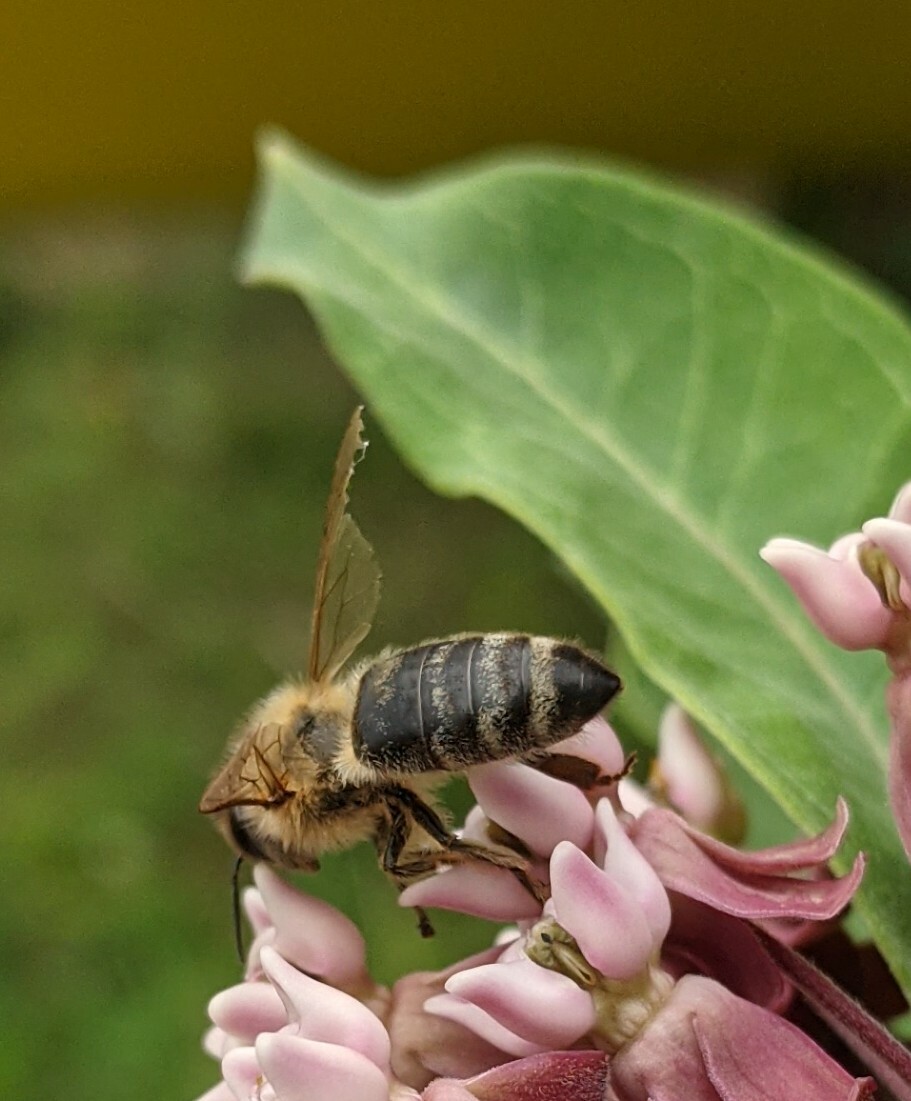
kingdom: Animalia
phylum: Arthropoda
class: Insecta
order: Hymenoptera
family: Apidae
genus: Apis
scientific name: Apis mellifera
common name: Honey bee
